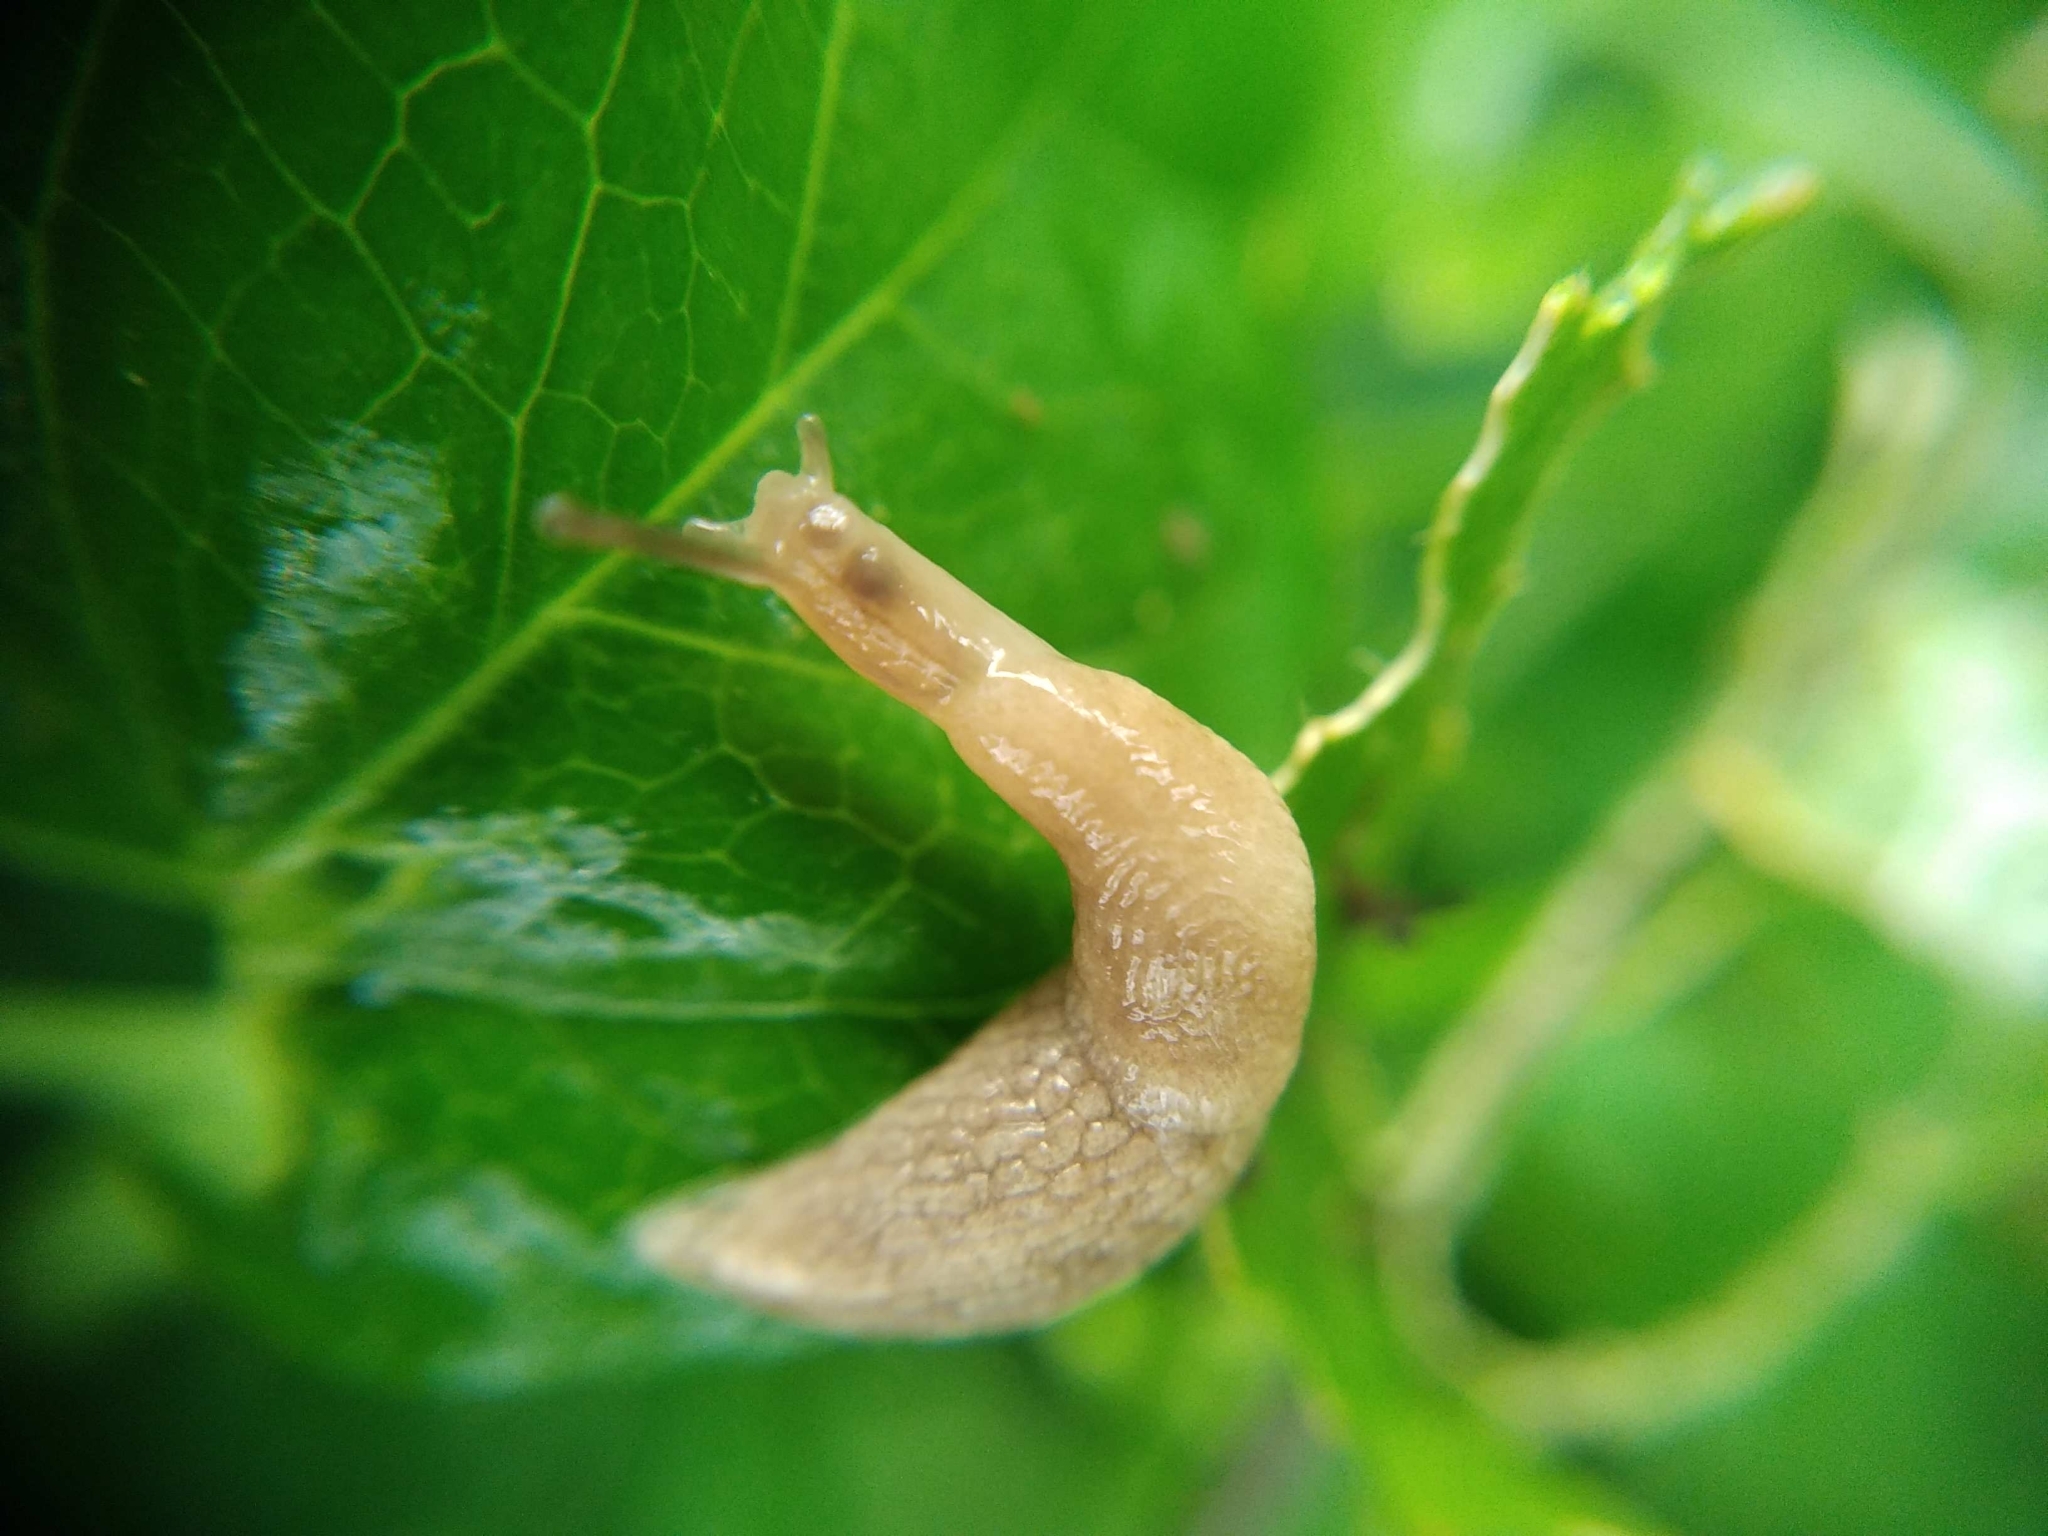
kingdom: Animalia
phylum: Mollusca
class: Gastropoda
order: Stylommatophora
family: Agriolimacidae
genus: Deroceras
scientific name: Deroceras reticulatum
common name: Gray field slug
